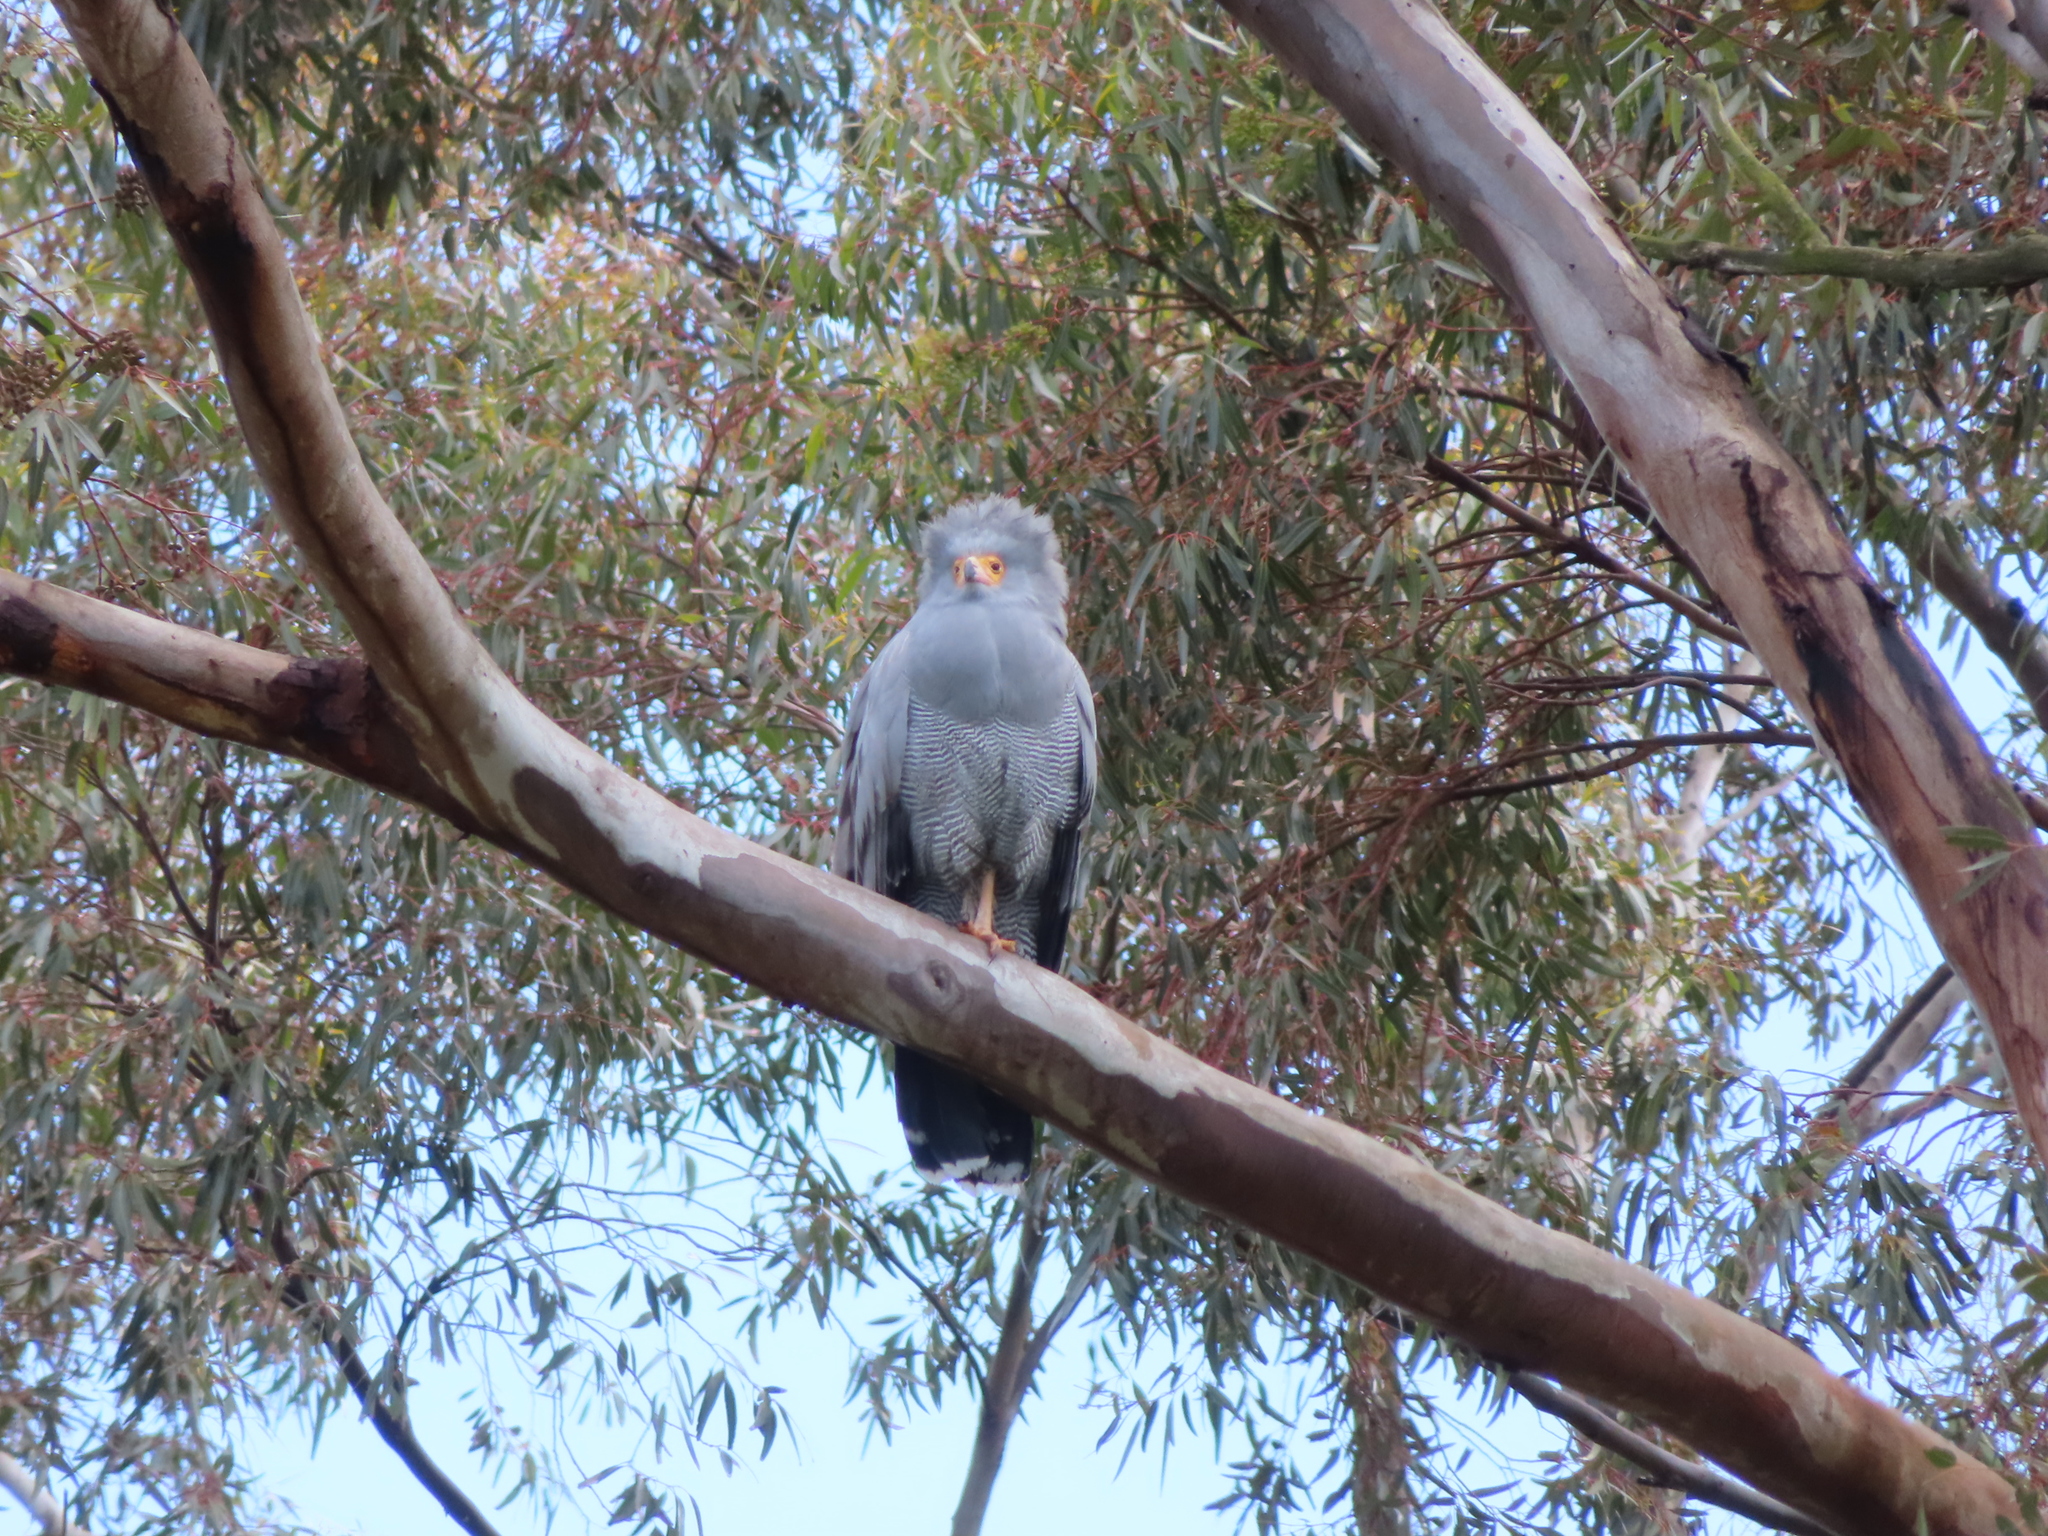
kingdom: Animalia
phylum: Chordata
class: Aves
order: Accipitriformes
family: Accipitridae
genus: Polyboroides
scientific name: Polyboroides typus
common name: African harrier-hawk
